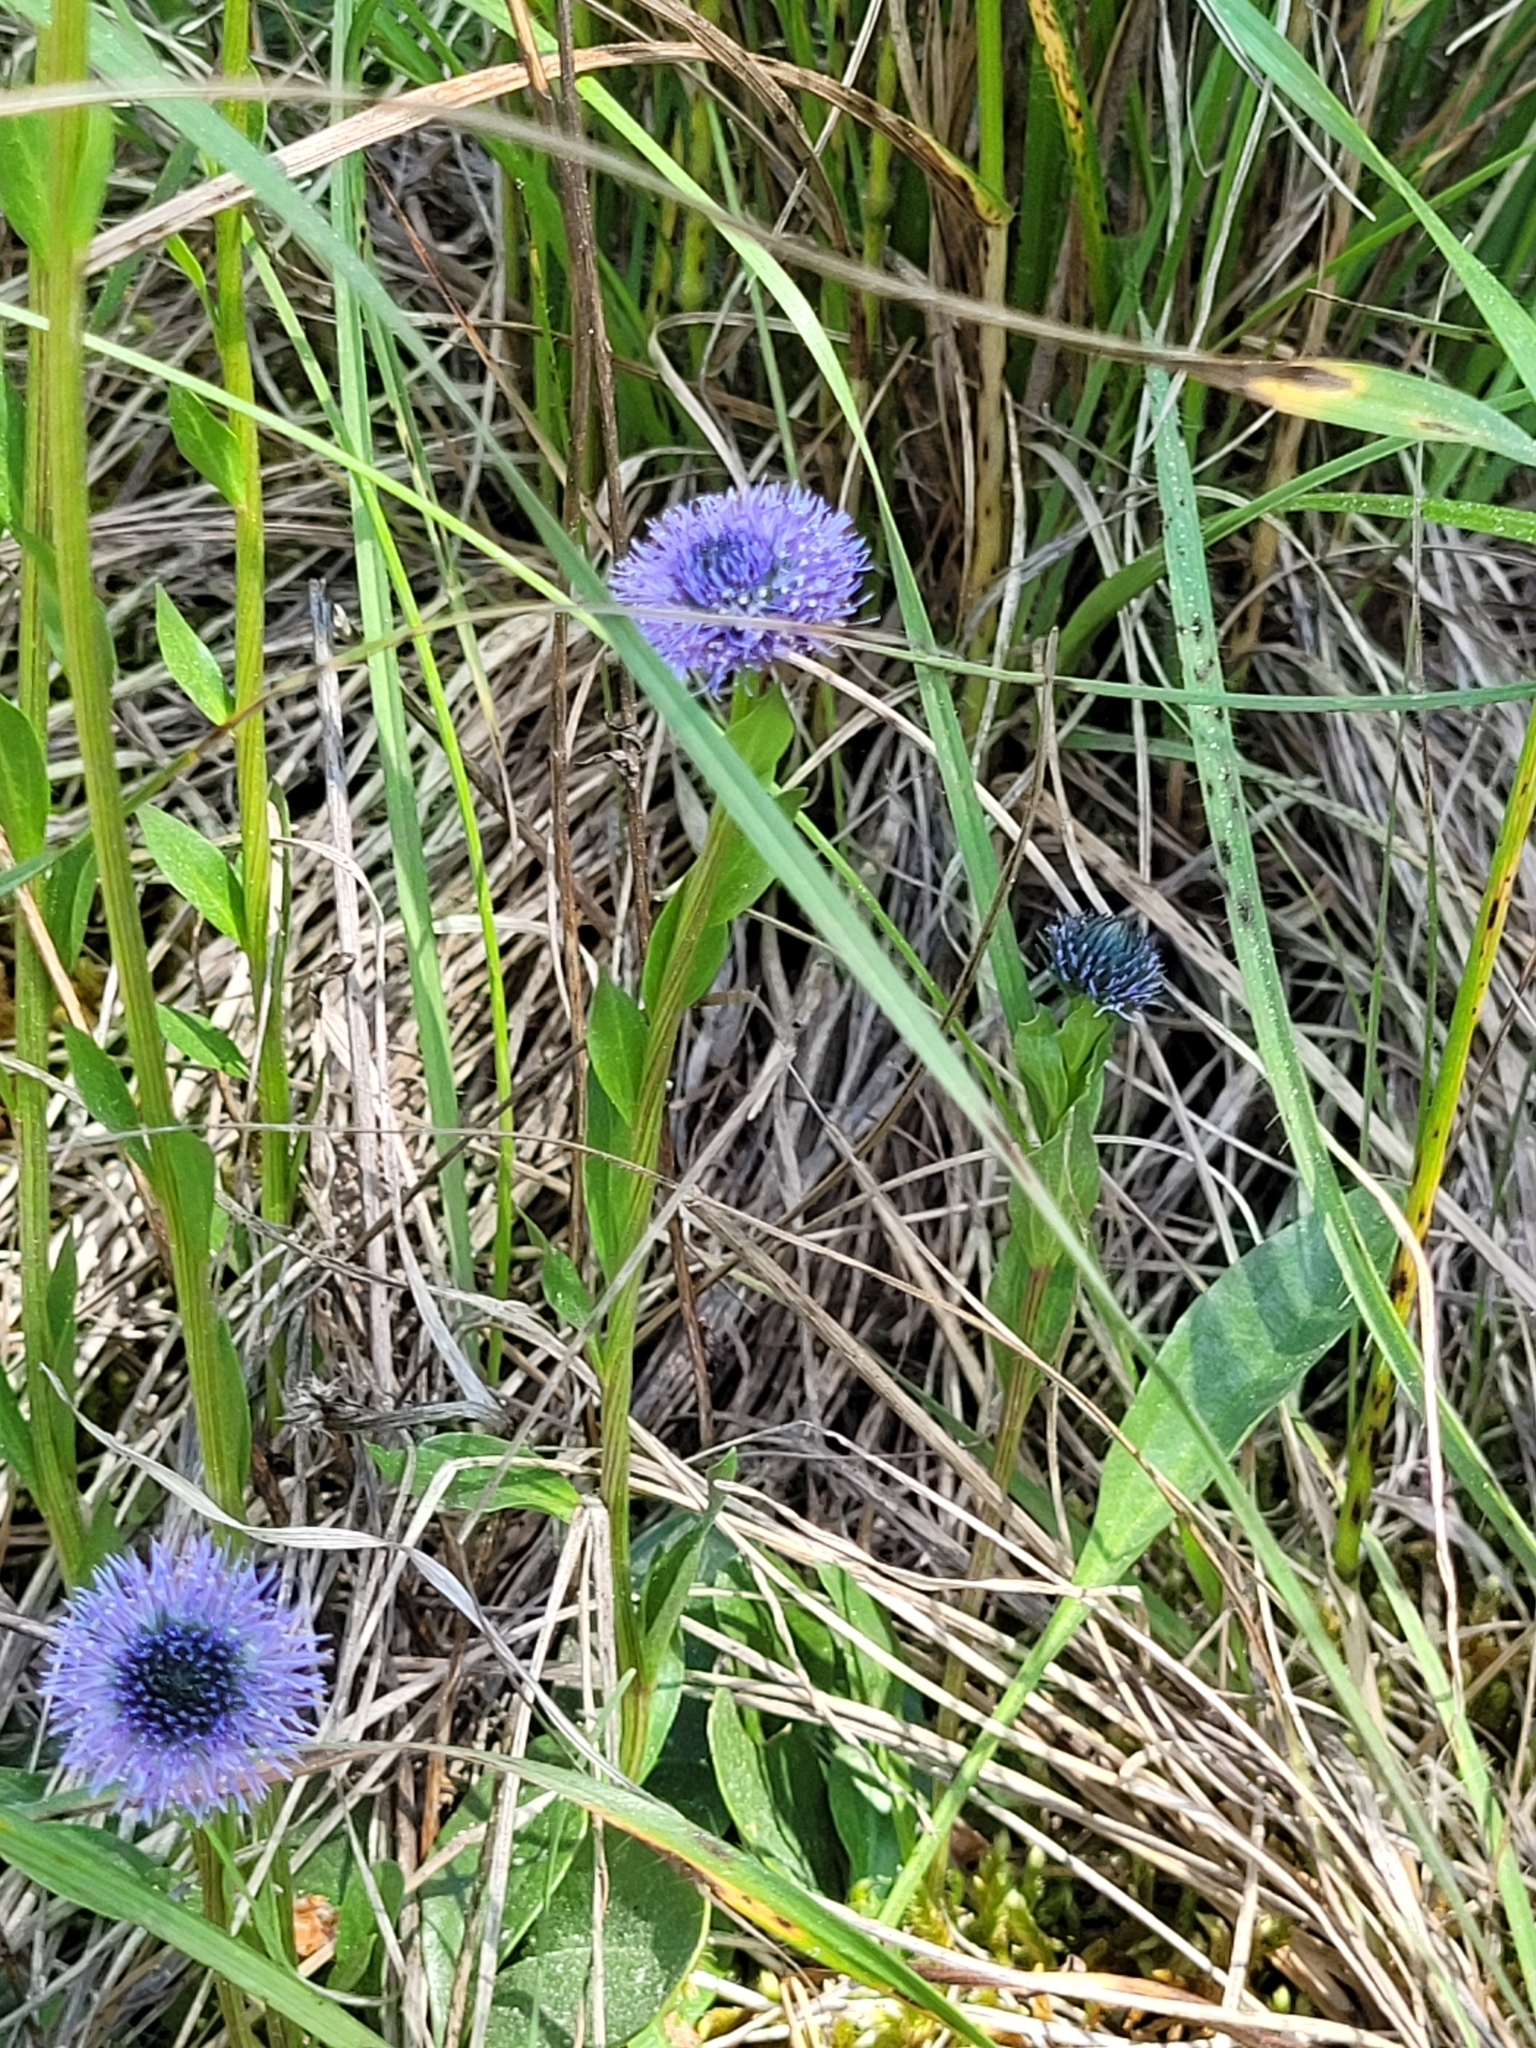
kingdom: Plantae
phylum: Tracheophyta
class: Magnoliopsida
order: Lamiales
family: Plantaginaceae
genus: Globularia
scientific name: Globularia bisnagarica
